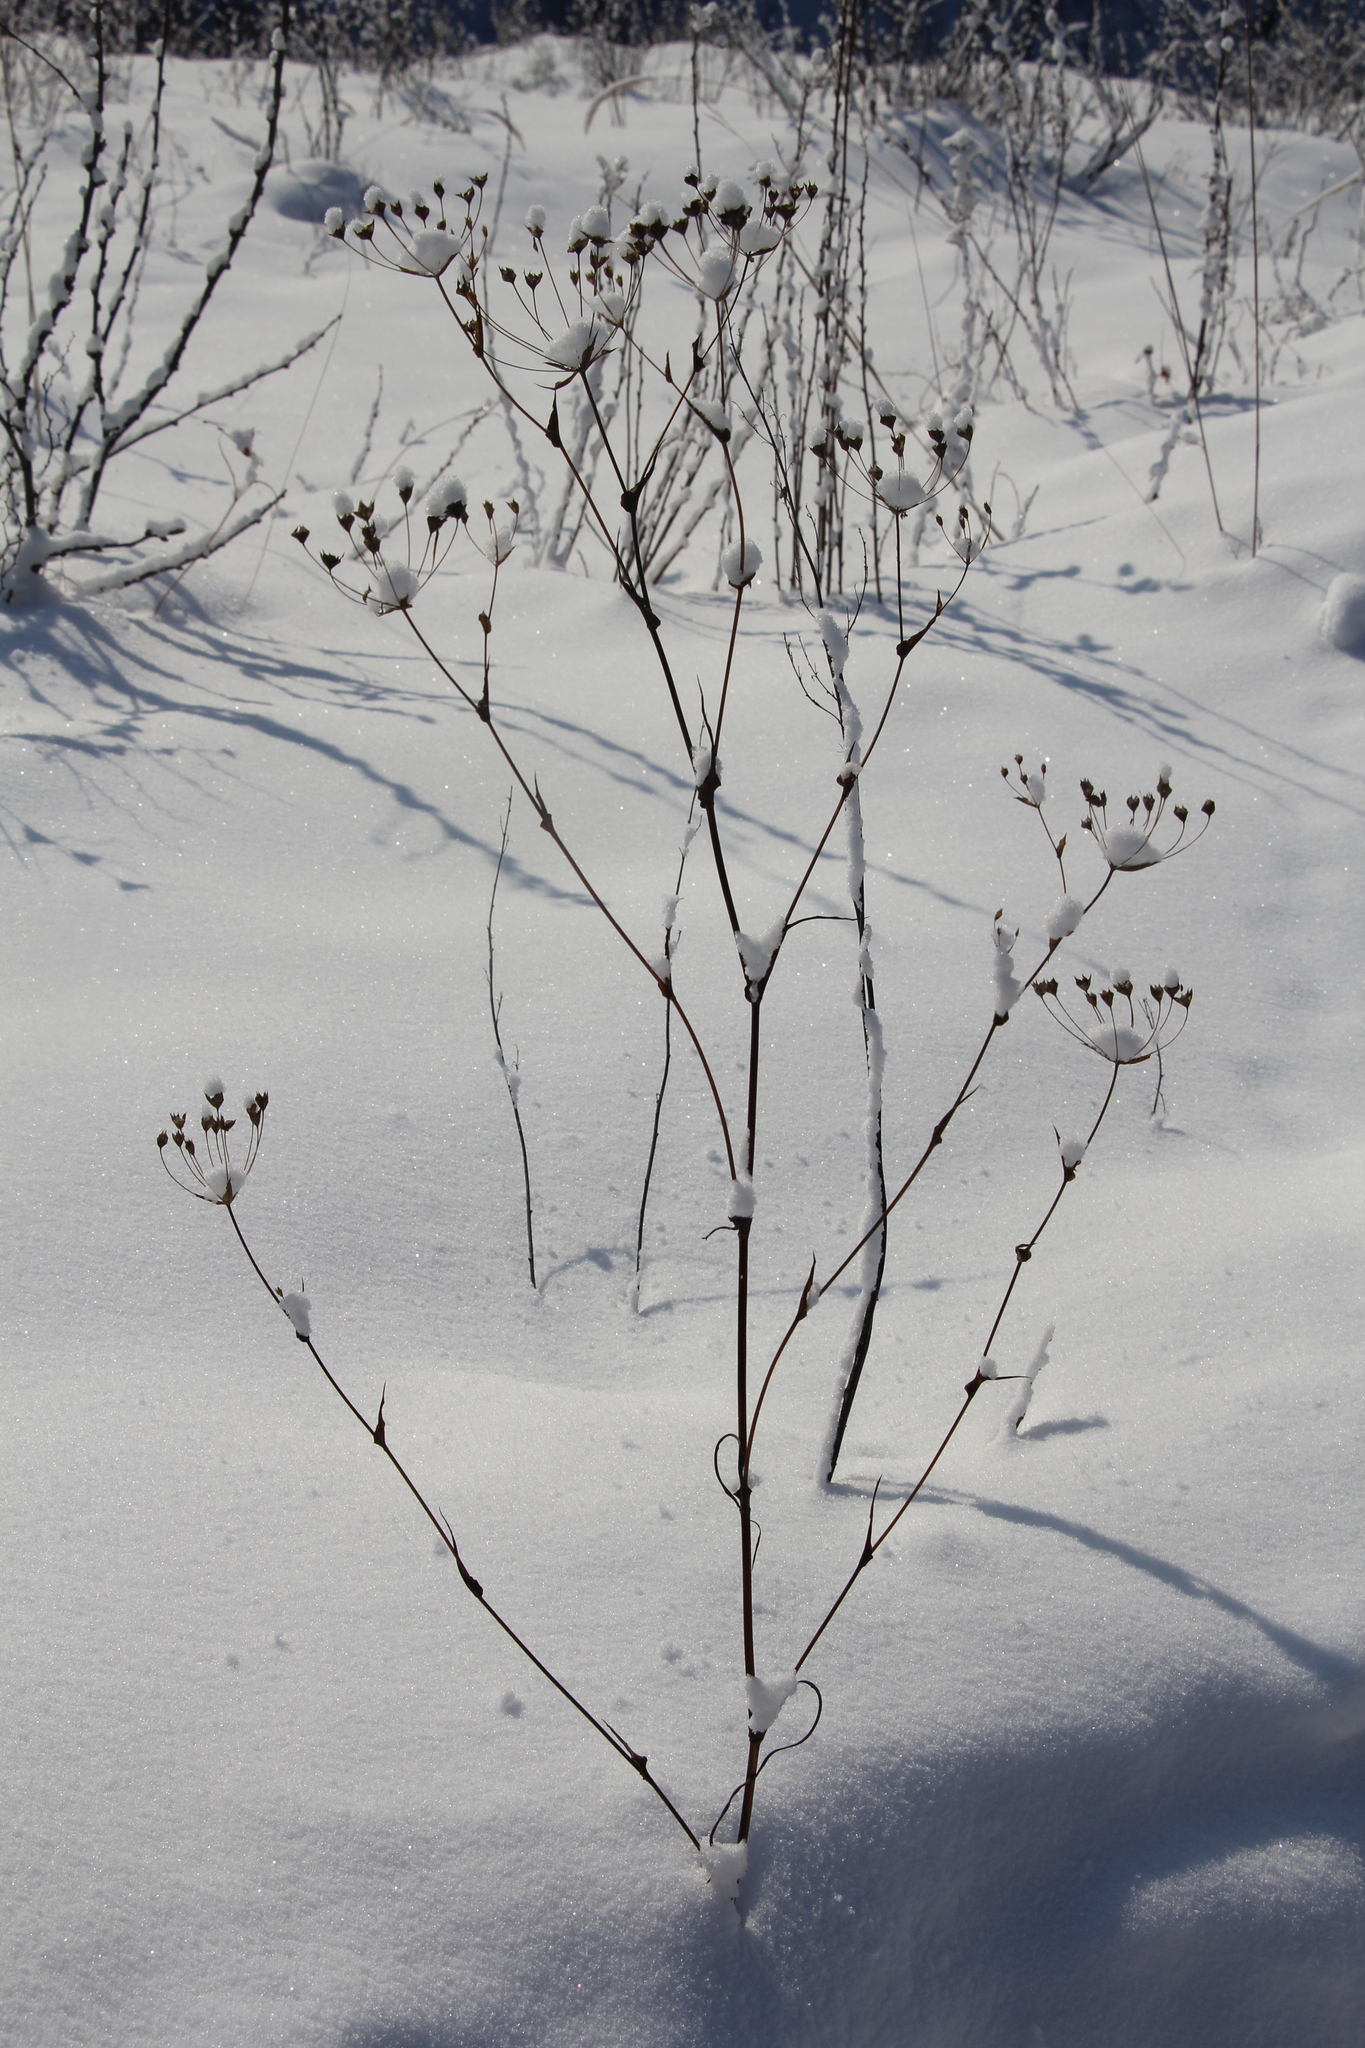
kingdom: Plantae
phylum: Tracheophyta
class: Magnoliopsida
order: Apiales
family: Apiaceae
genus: Bupleurum
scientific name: Bupleurum multinerve
